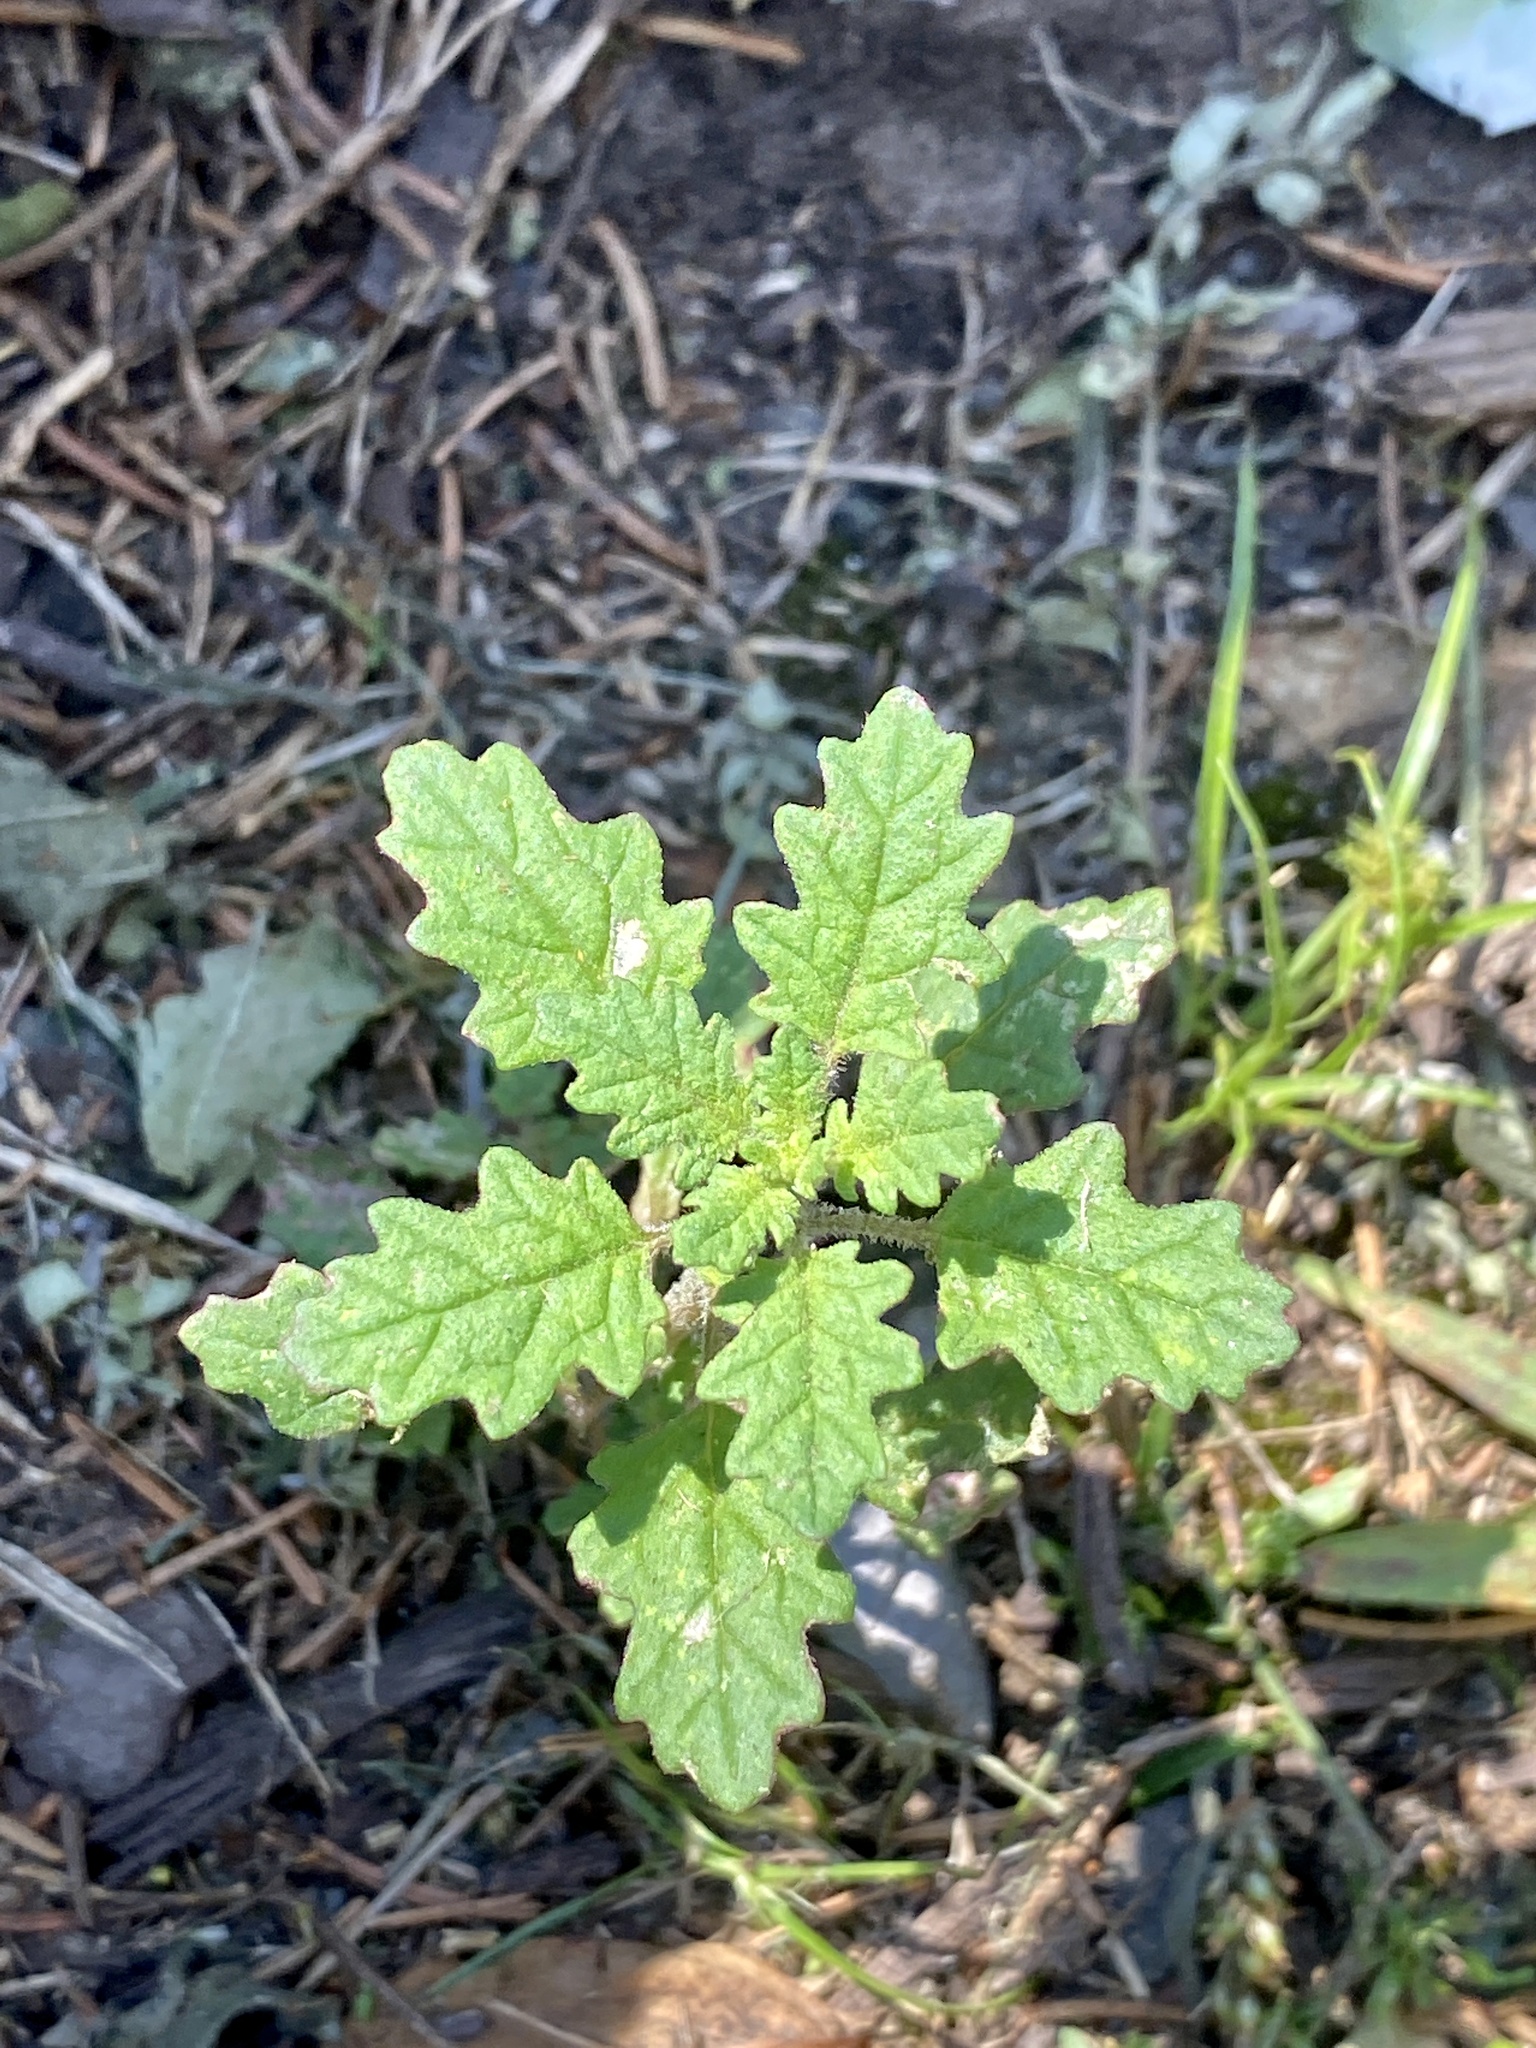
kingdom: Plantae
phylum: Tracheophyta
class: Magnoliopsida
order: Caryophyllales
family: Amaranthaceae
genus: Dysphania
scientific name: Dysphania pumilio
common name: Clammy goosefoot
